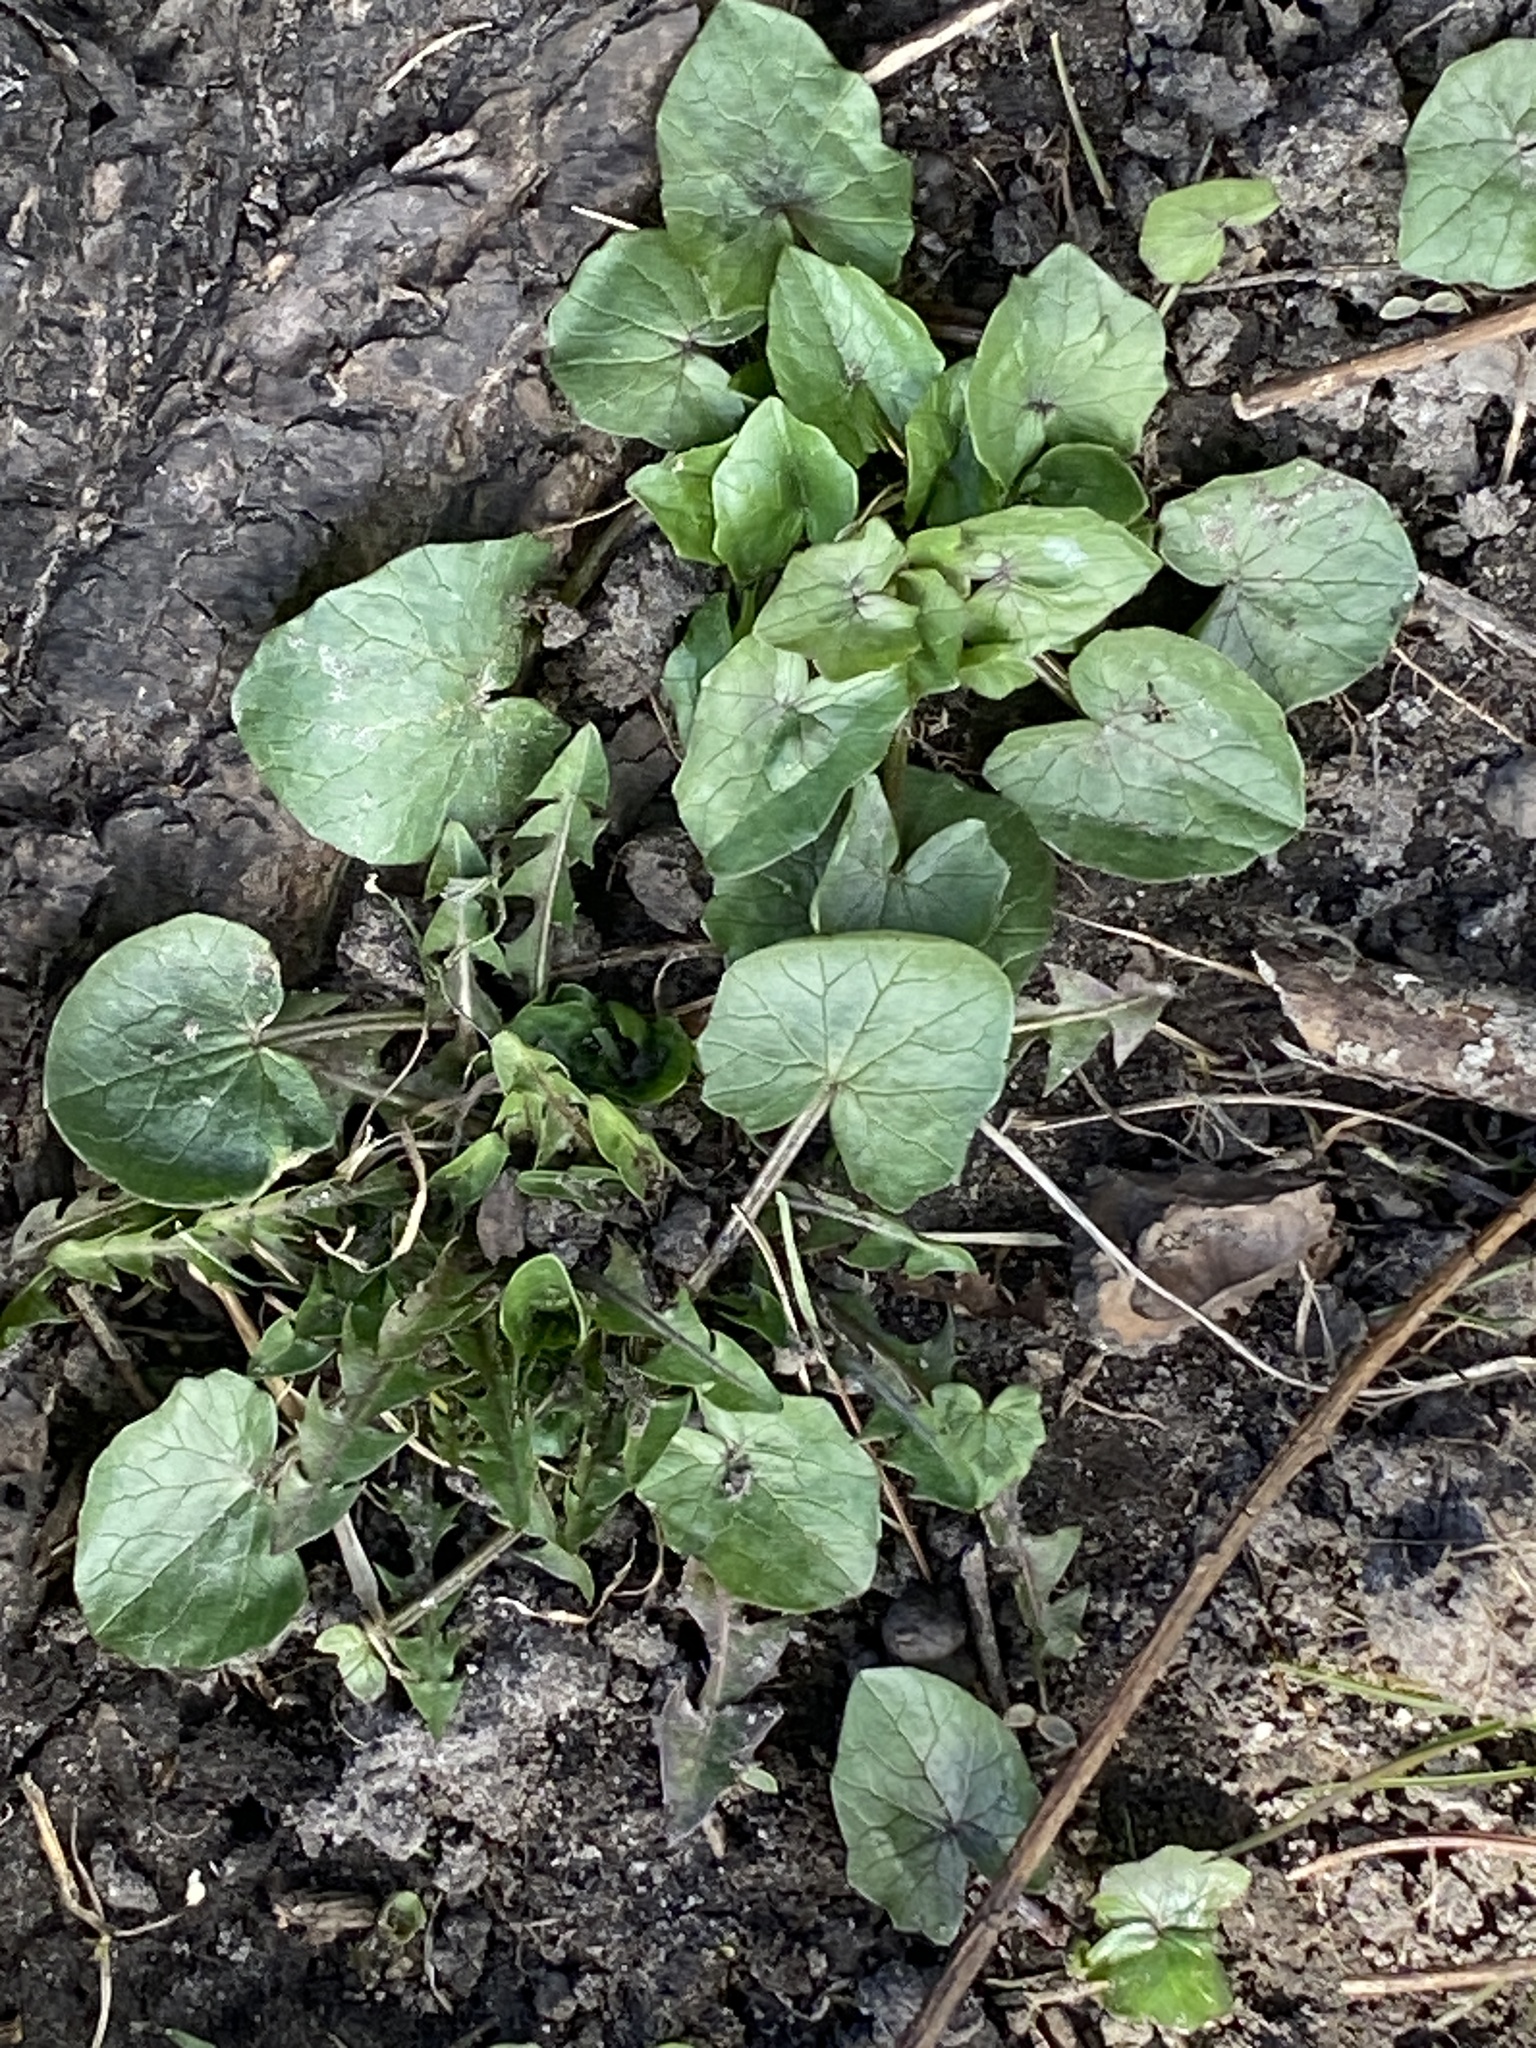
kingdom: Plantae
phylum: Tracheophyta
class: Magnoliopsida
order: Ranunculales
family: Ranunculaceae
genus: Ficaria
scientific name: Ficaria verna
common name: Lesser celandine
